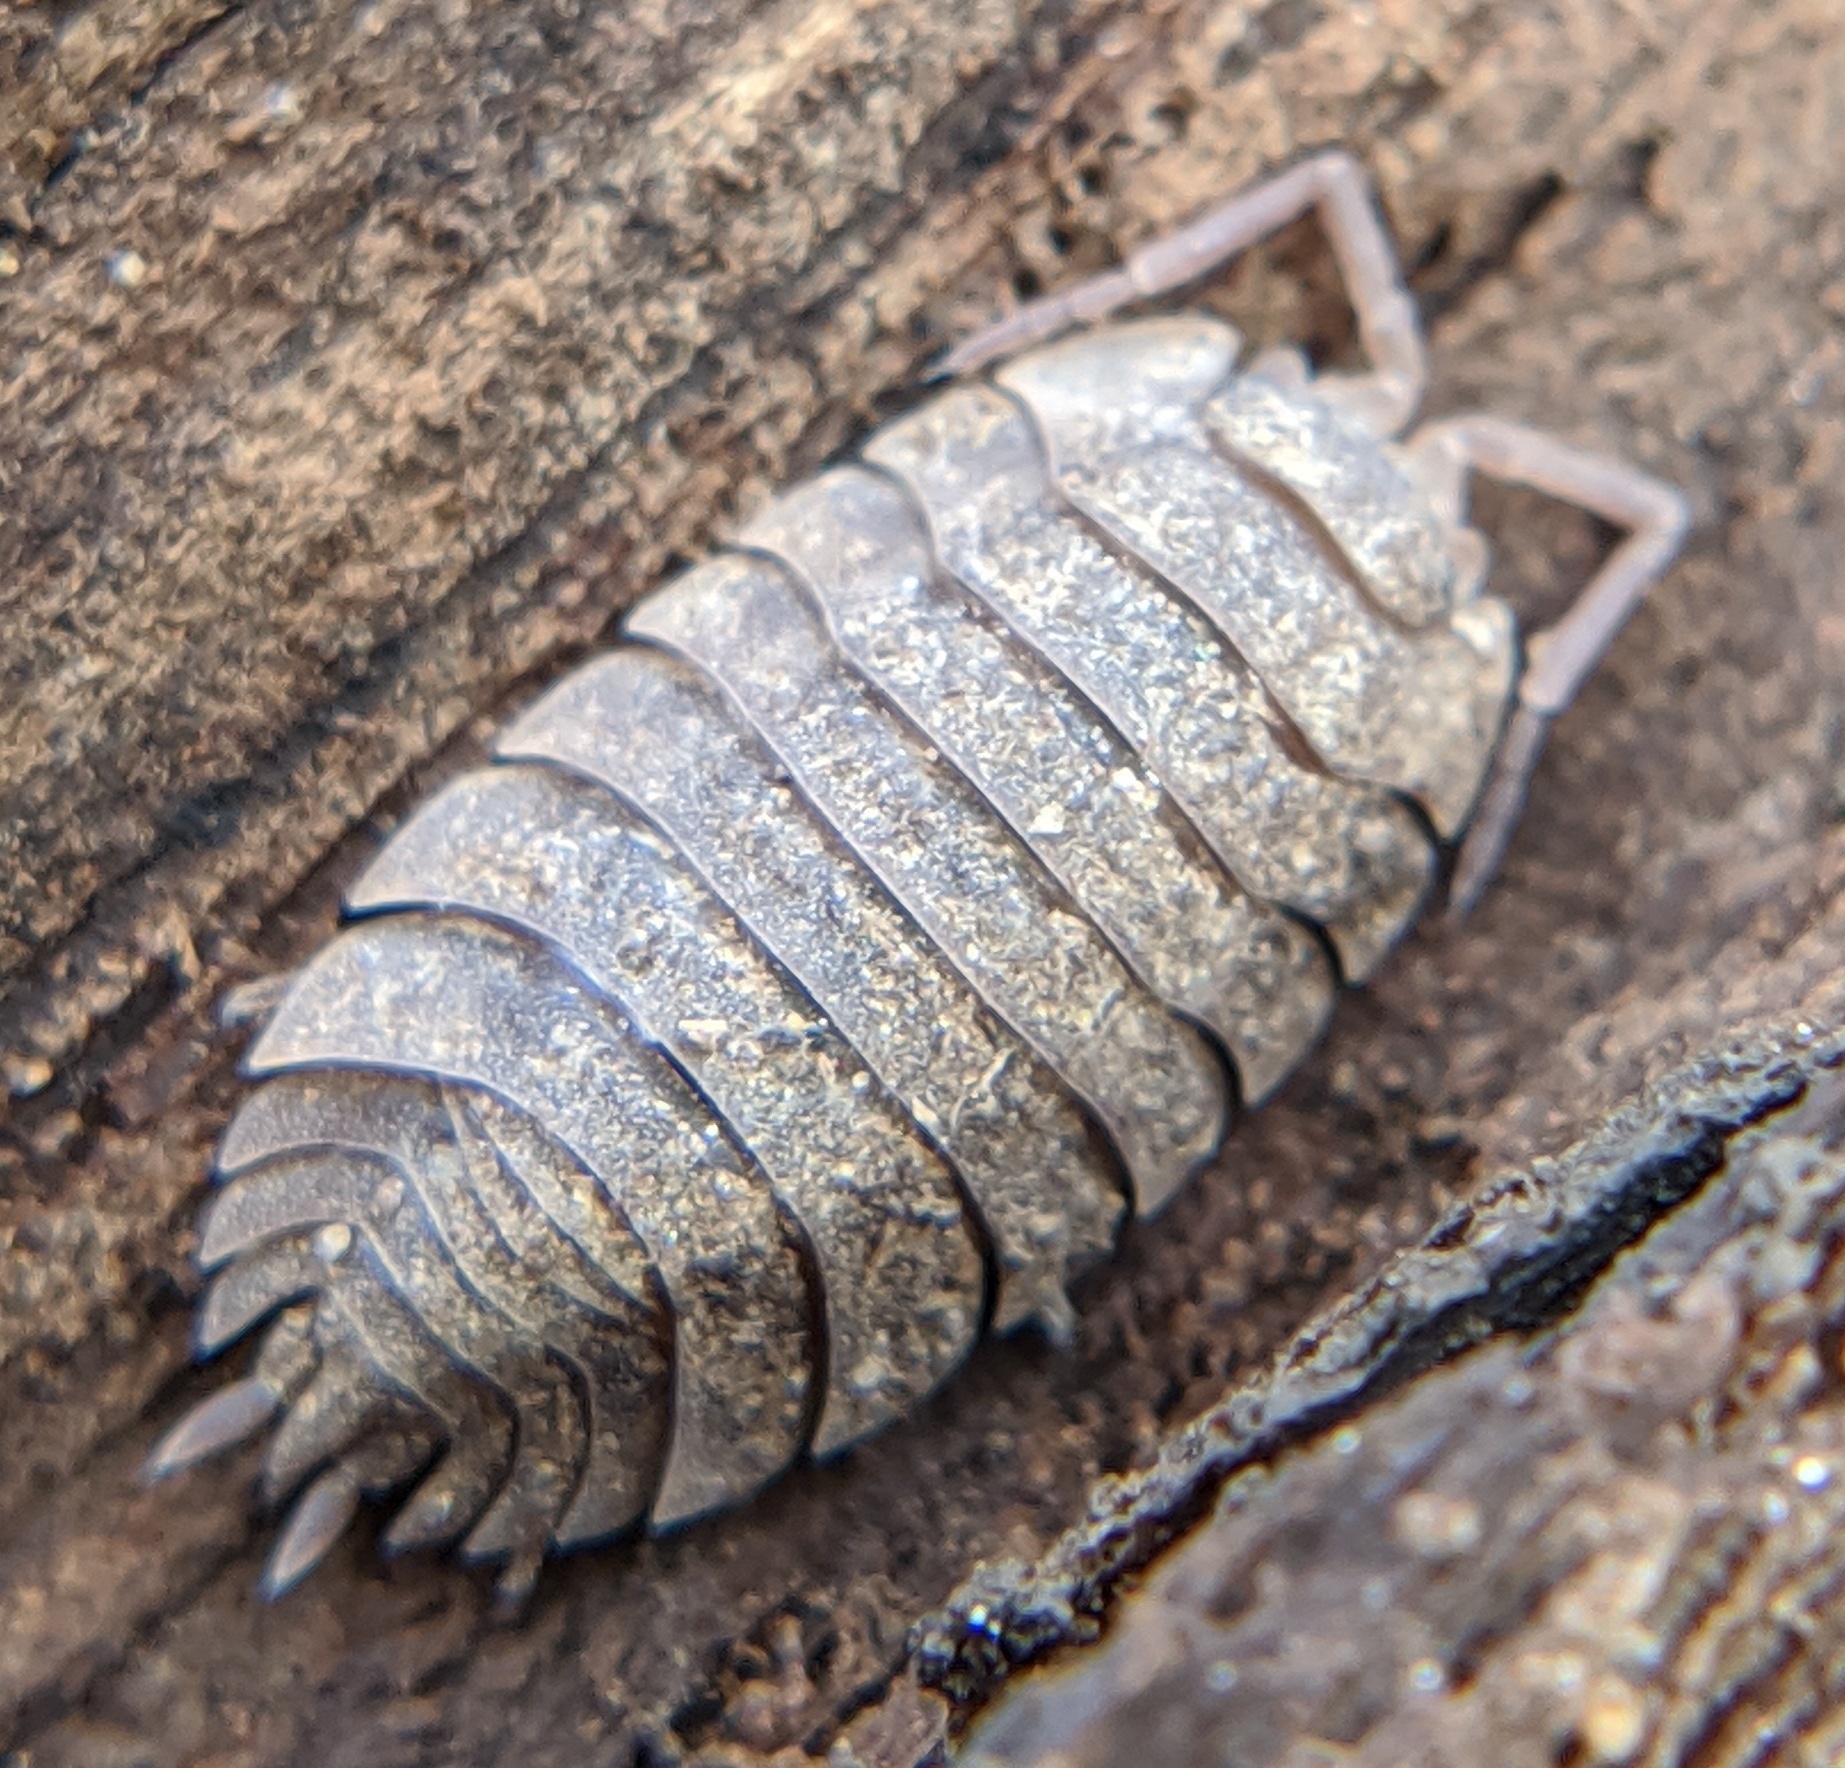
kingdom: Animalia
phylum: Arthropoda
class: Malacostraca
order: Isopoda
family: Oniscidae
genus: Oniscus
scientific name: Oniscus asellus
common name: Common shiny woodlouse
